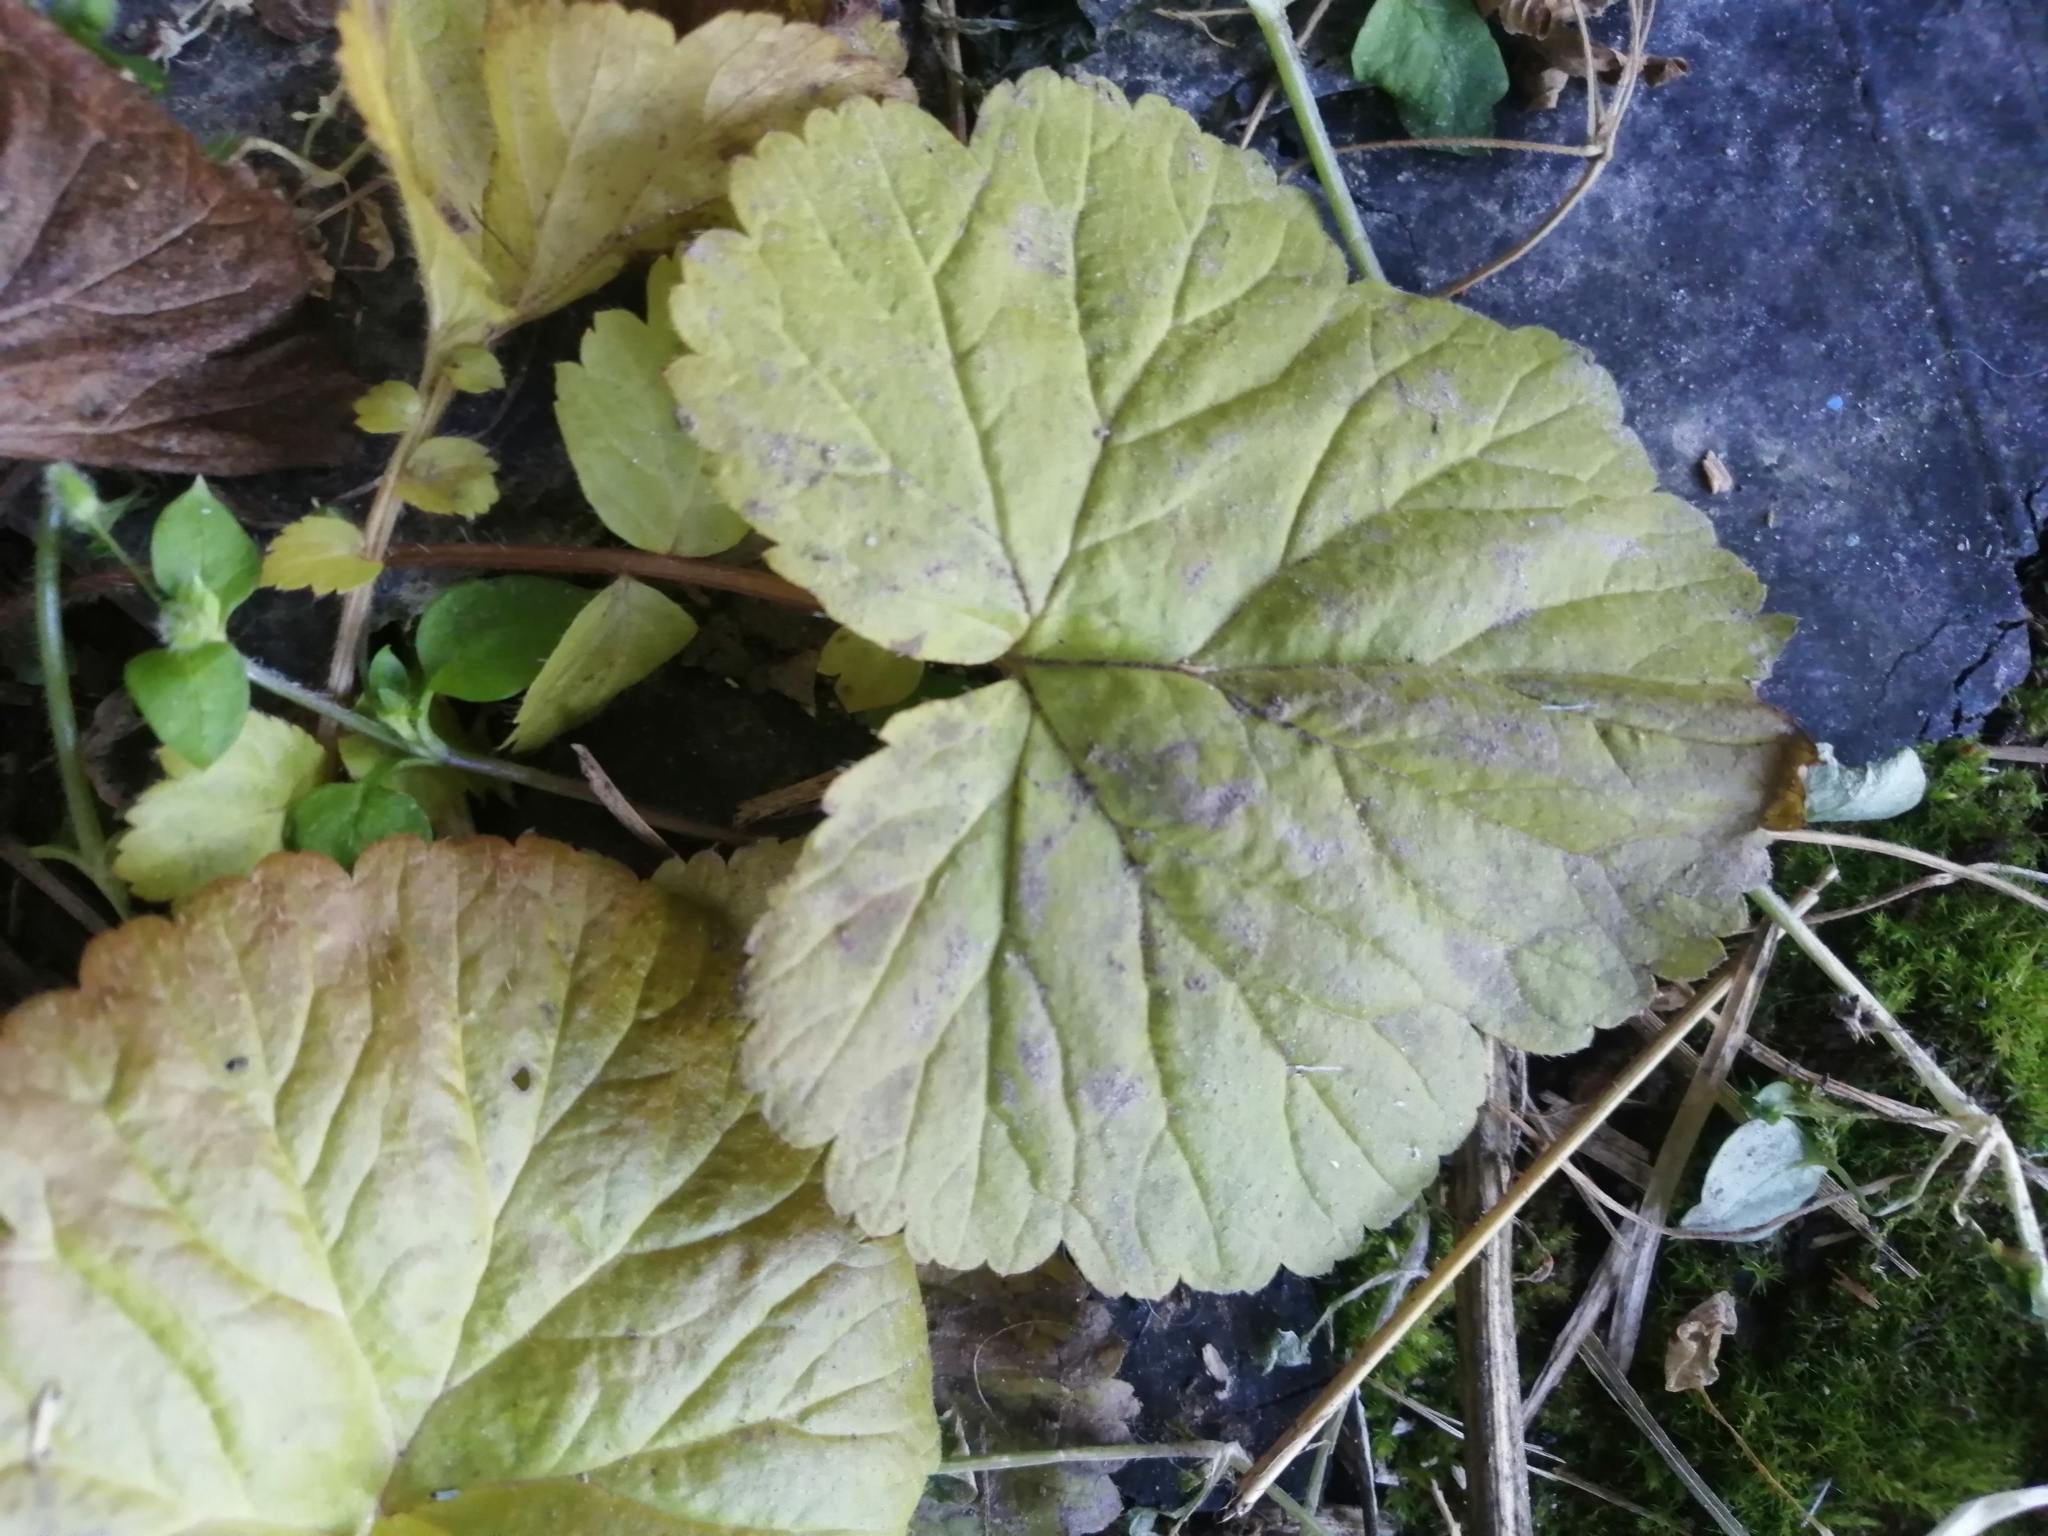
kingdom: Plantae
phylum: Tracheophyta
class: Magnoliopsida
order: Rosales
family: Rosaceae
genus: Geum
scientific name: Geum aleppicum
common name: Yellow avens
